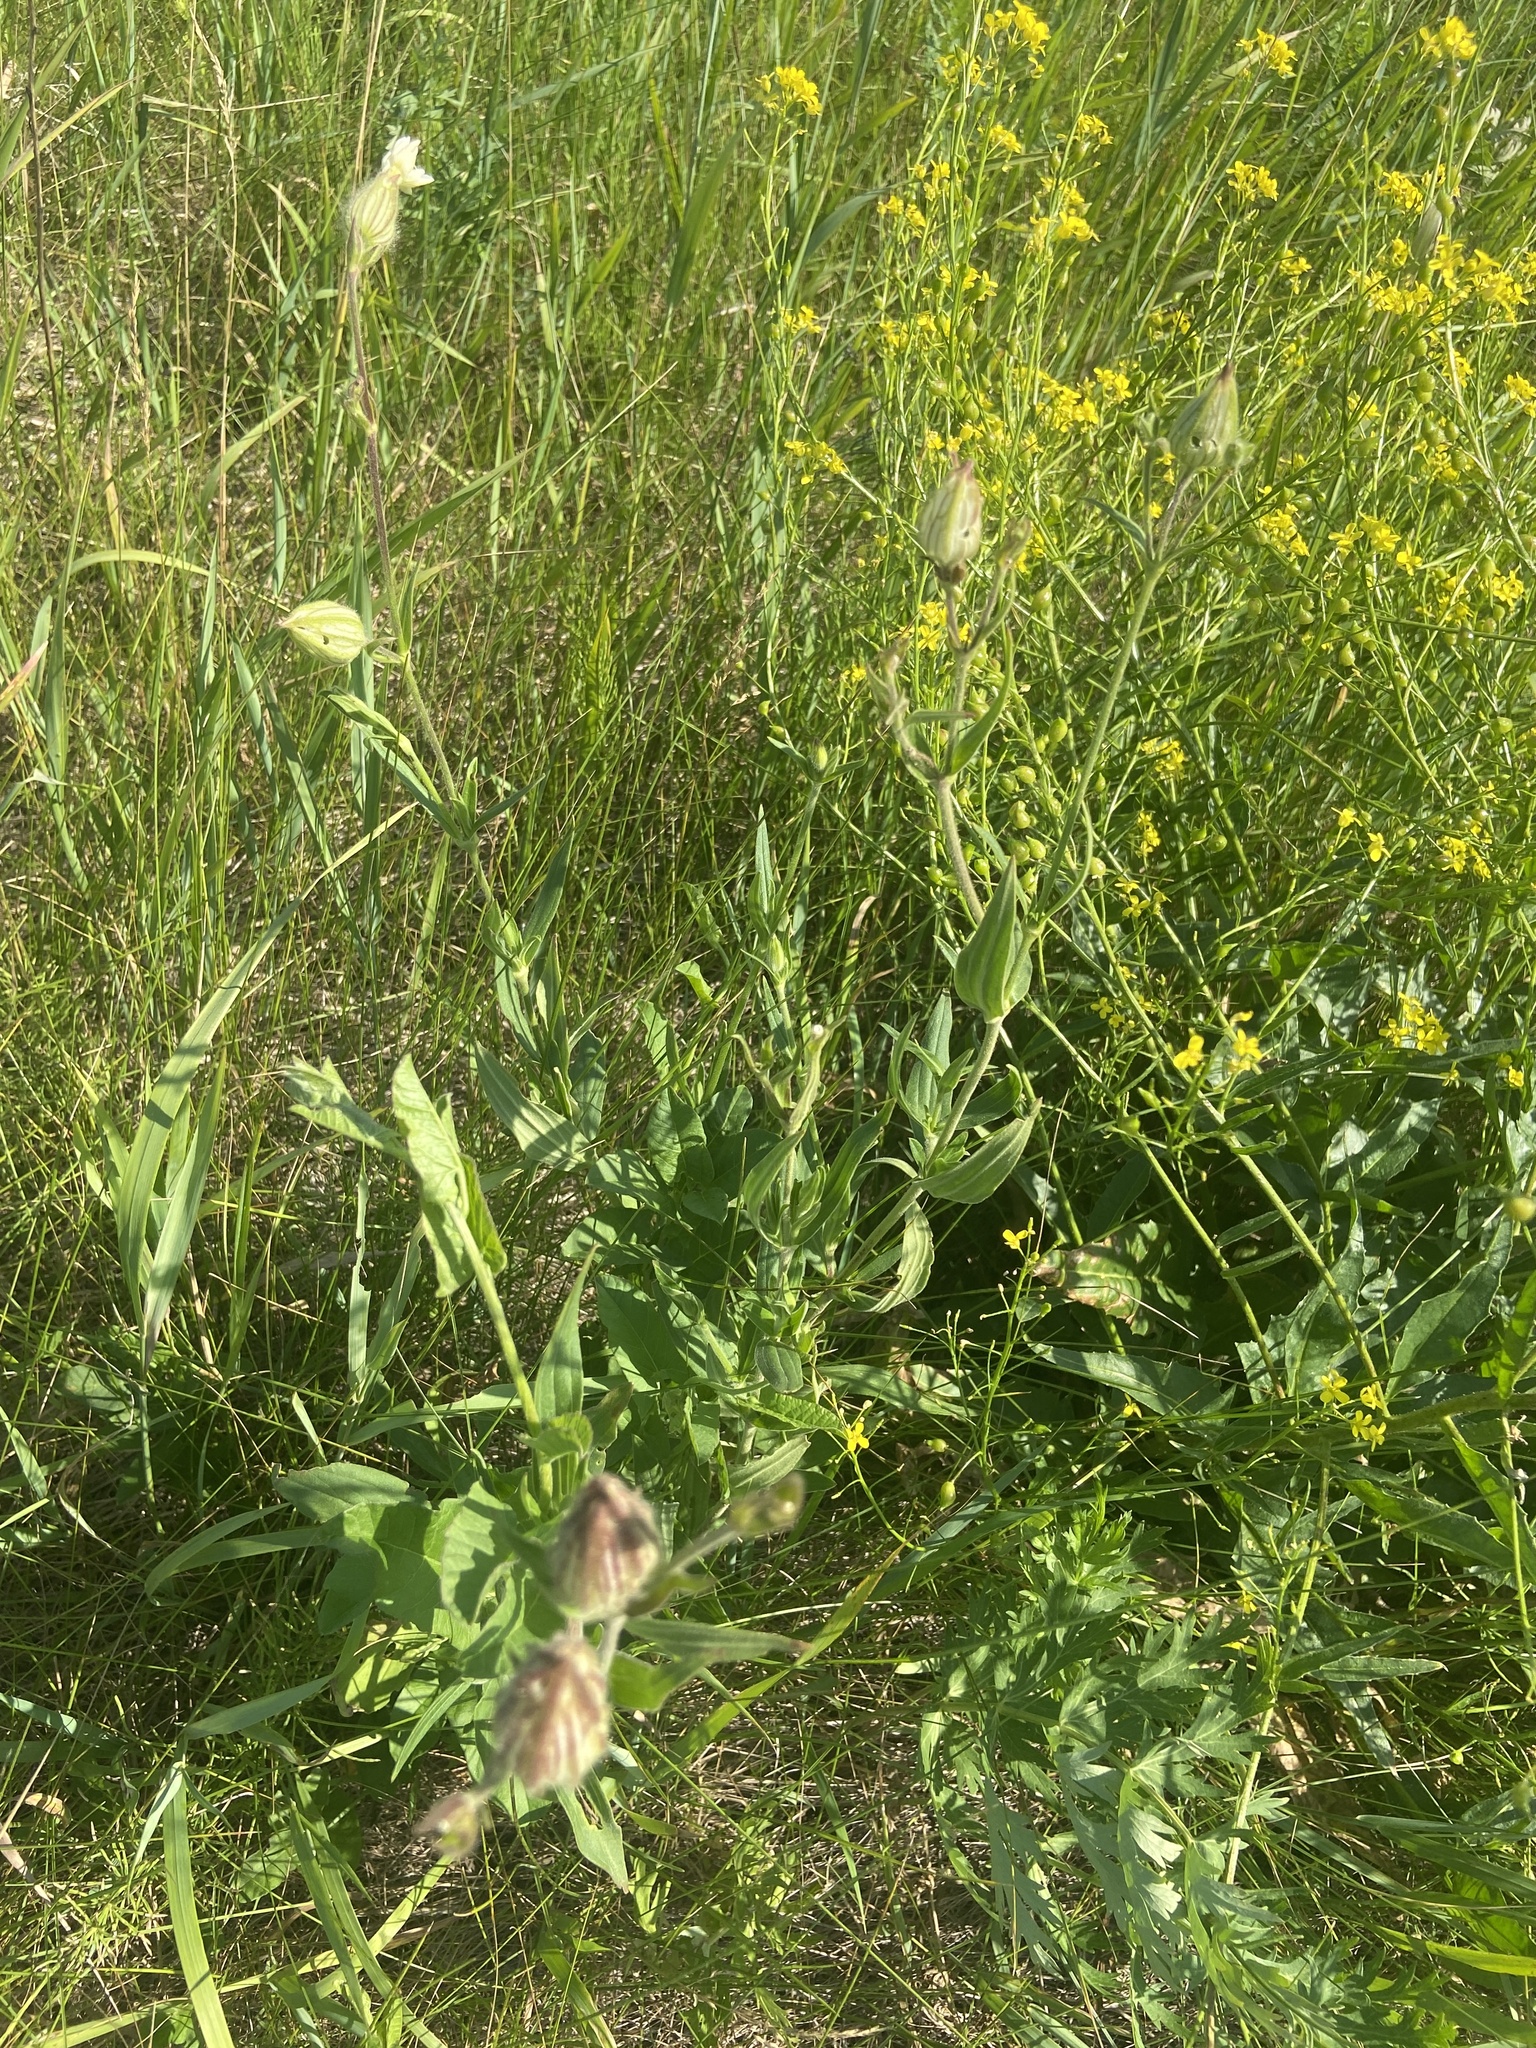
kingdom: Plantae
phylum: Tracheophyta
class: Magnoliopsida
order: Caryophyllales
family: Caryophyllaceae
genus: Silene
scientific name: Silene latifolia
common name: White campion
